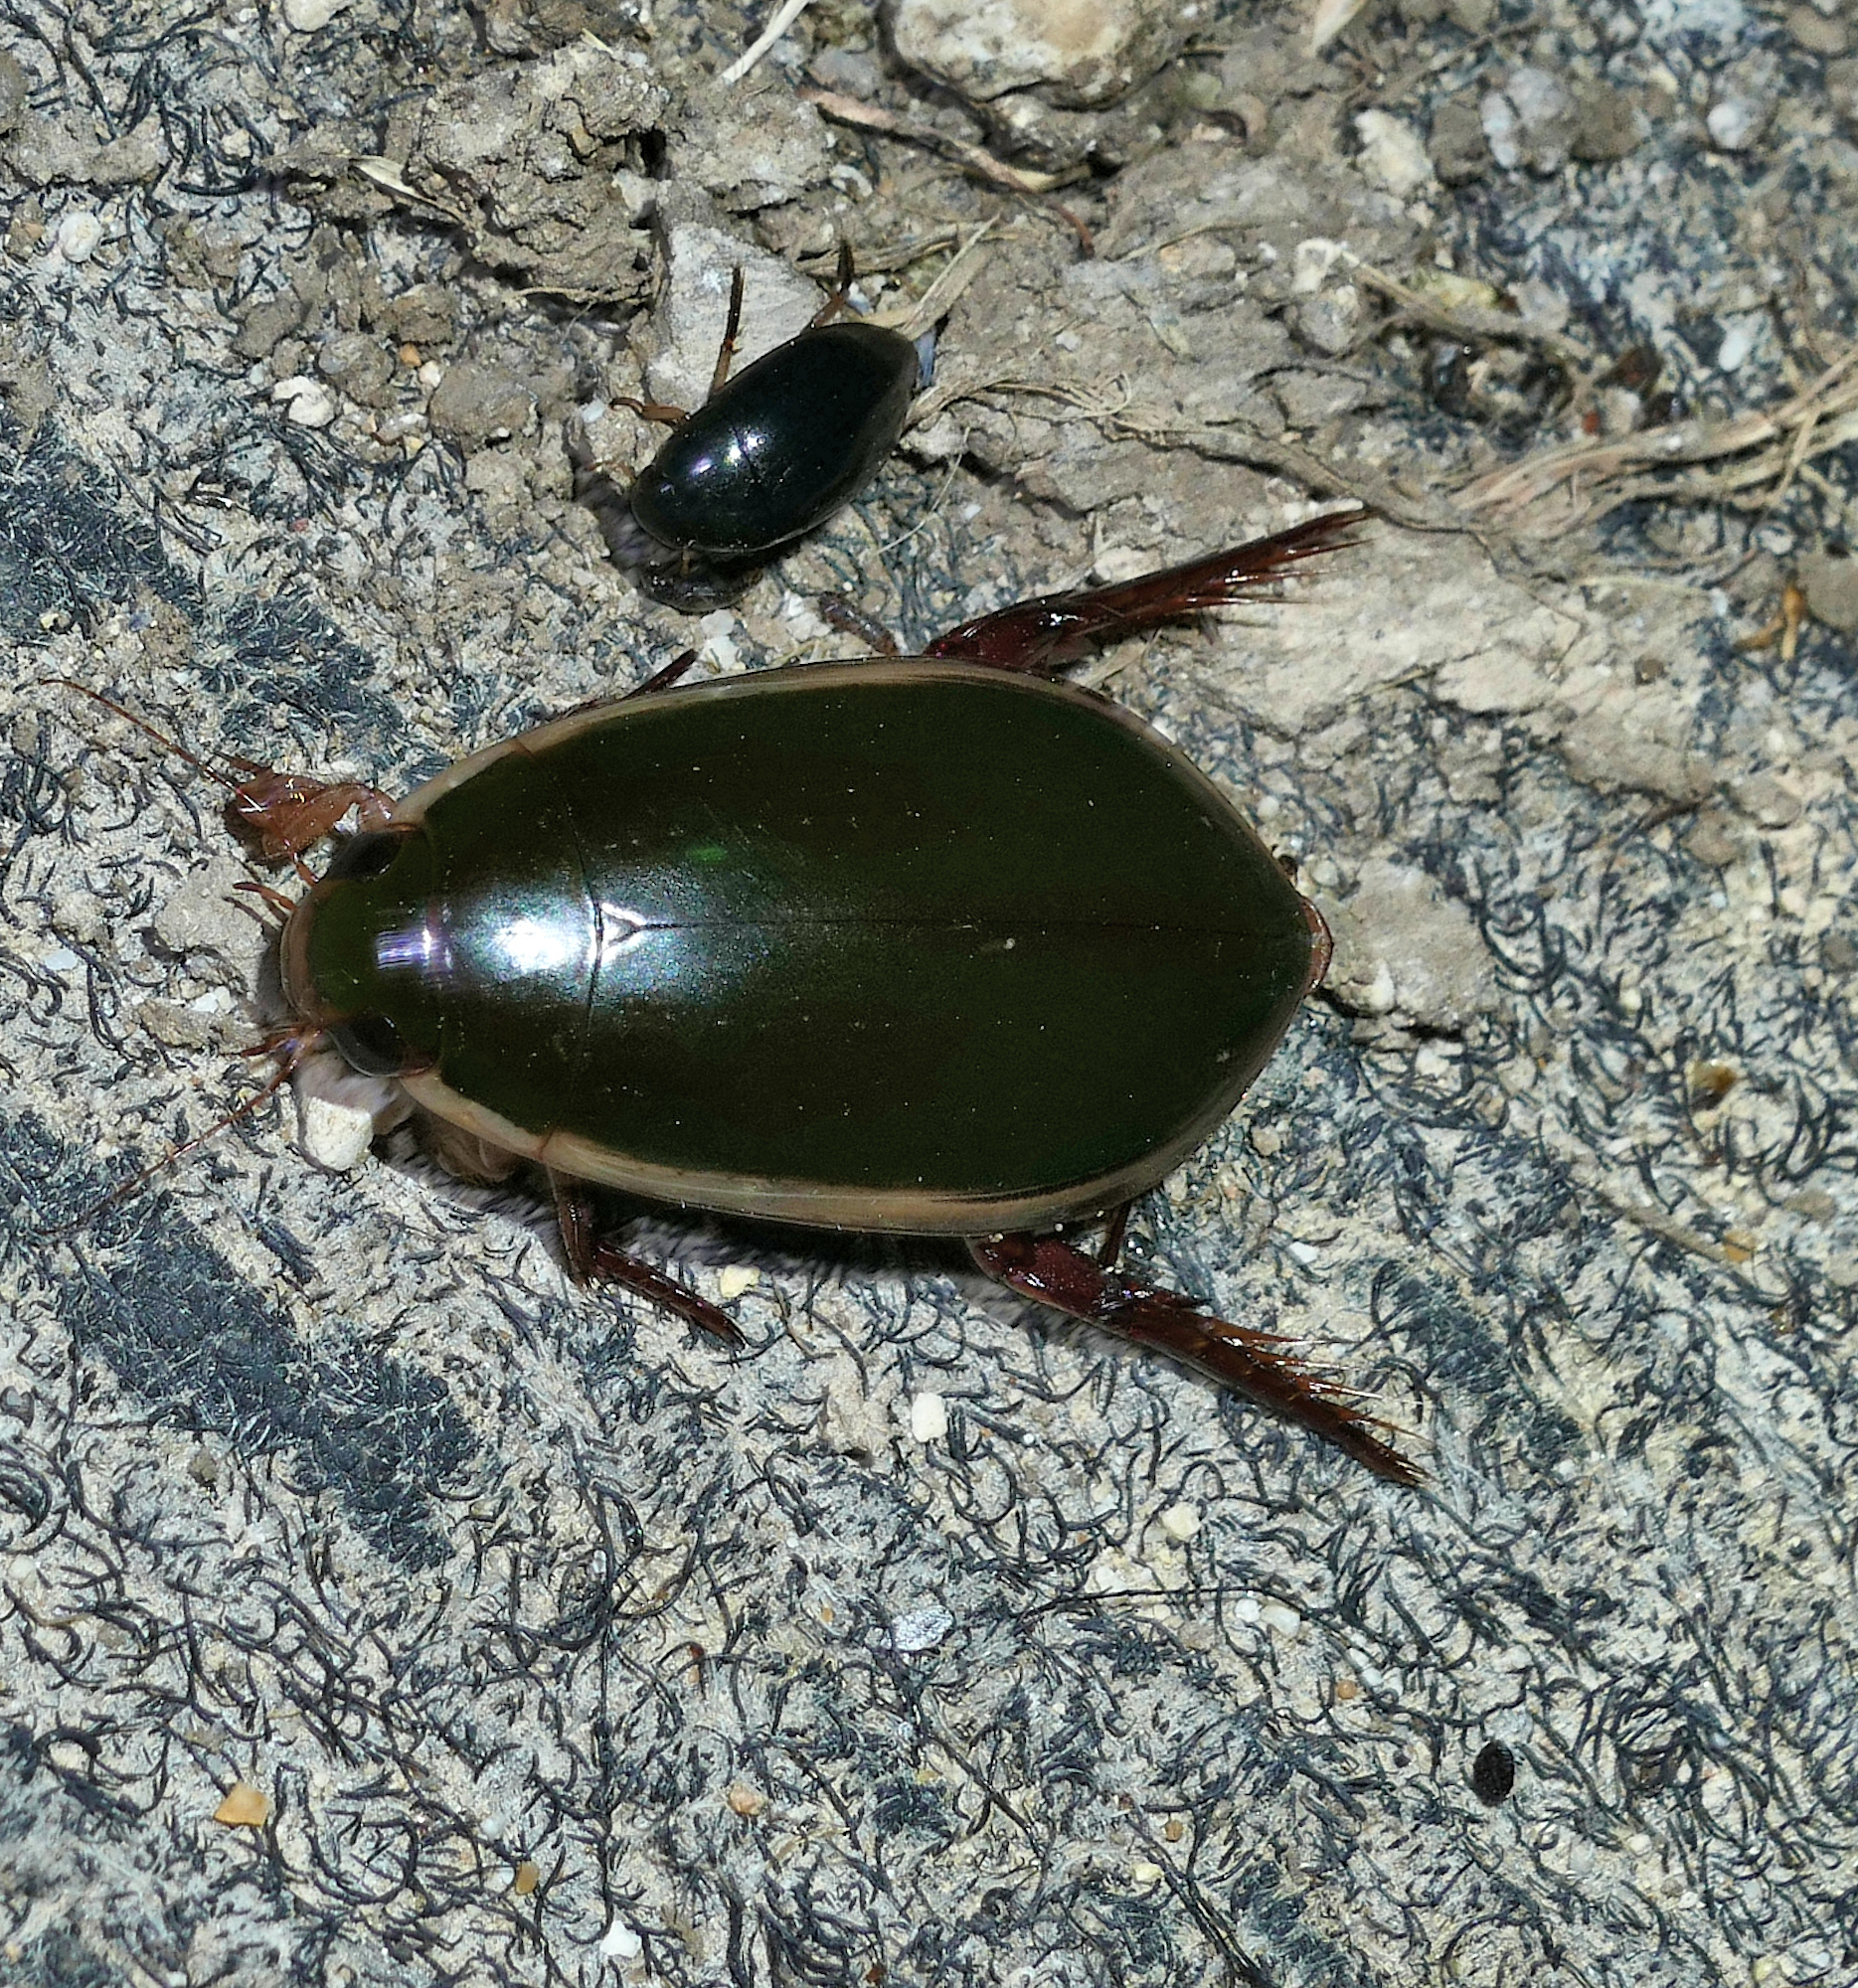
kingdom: Animalia
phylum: Arthropoda
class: Insecta
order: Coleoptera
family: Dytiscidae
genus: Cybister
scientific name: Cybister fimbriolatus
